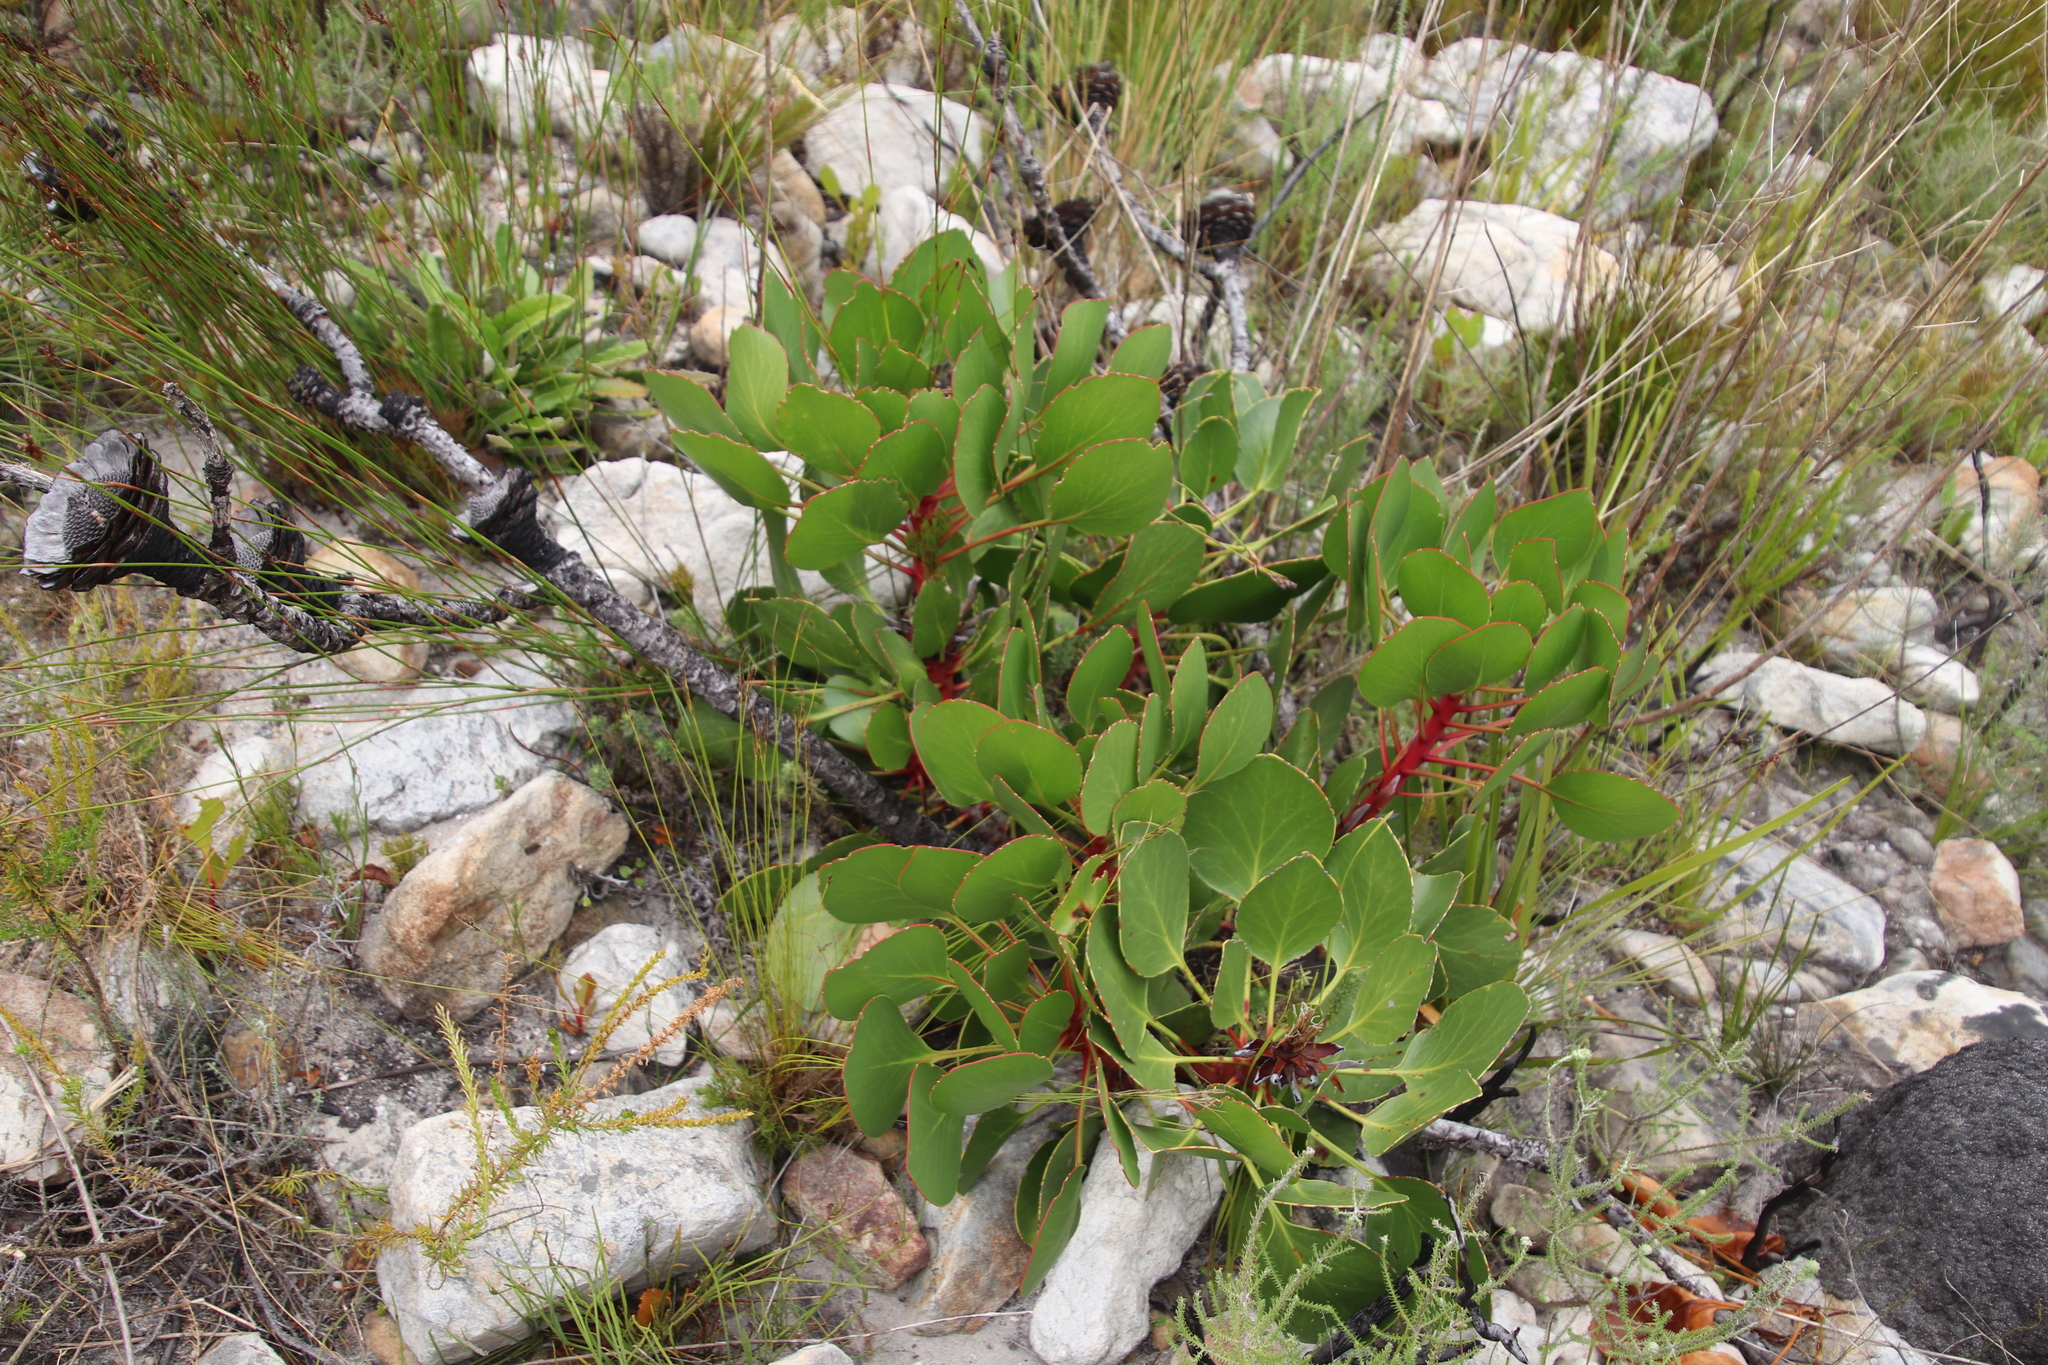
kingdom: Plantae
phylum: Tracheophyta
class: Magnoliopsida
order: Proteales
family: Proteaceae
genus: Protea
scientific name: Protea cynaroides
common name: King protea
